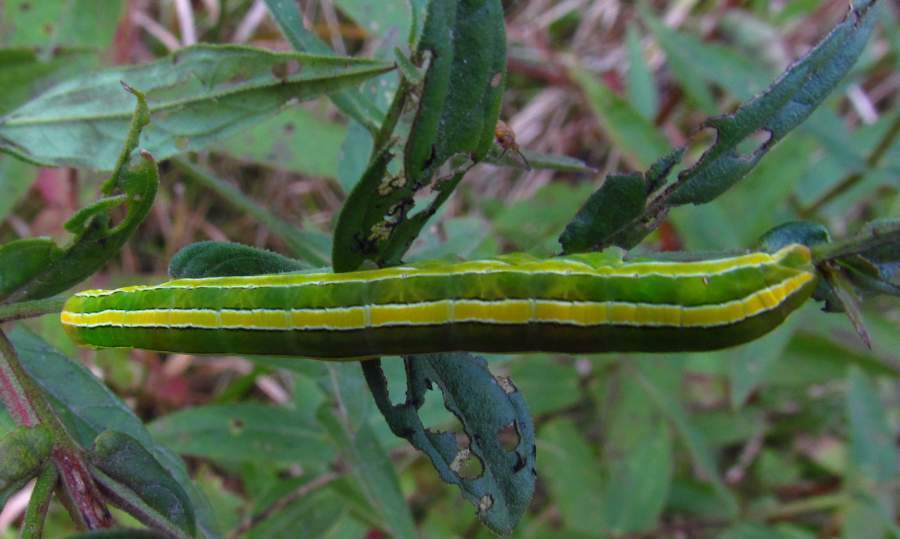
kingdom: Animalia
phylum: Arthropoda
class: Insecta
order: Lepidoptera
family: Noctuidae
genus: Melanchra
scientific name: Melanchra assimilis
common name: Black arches
